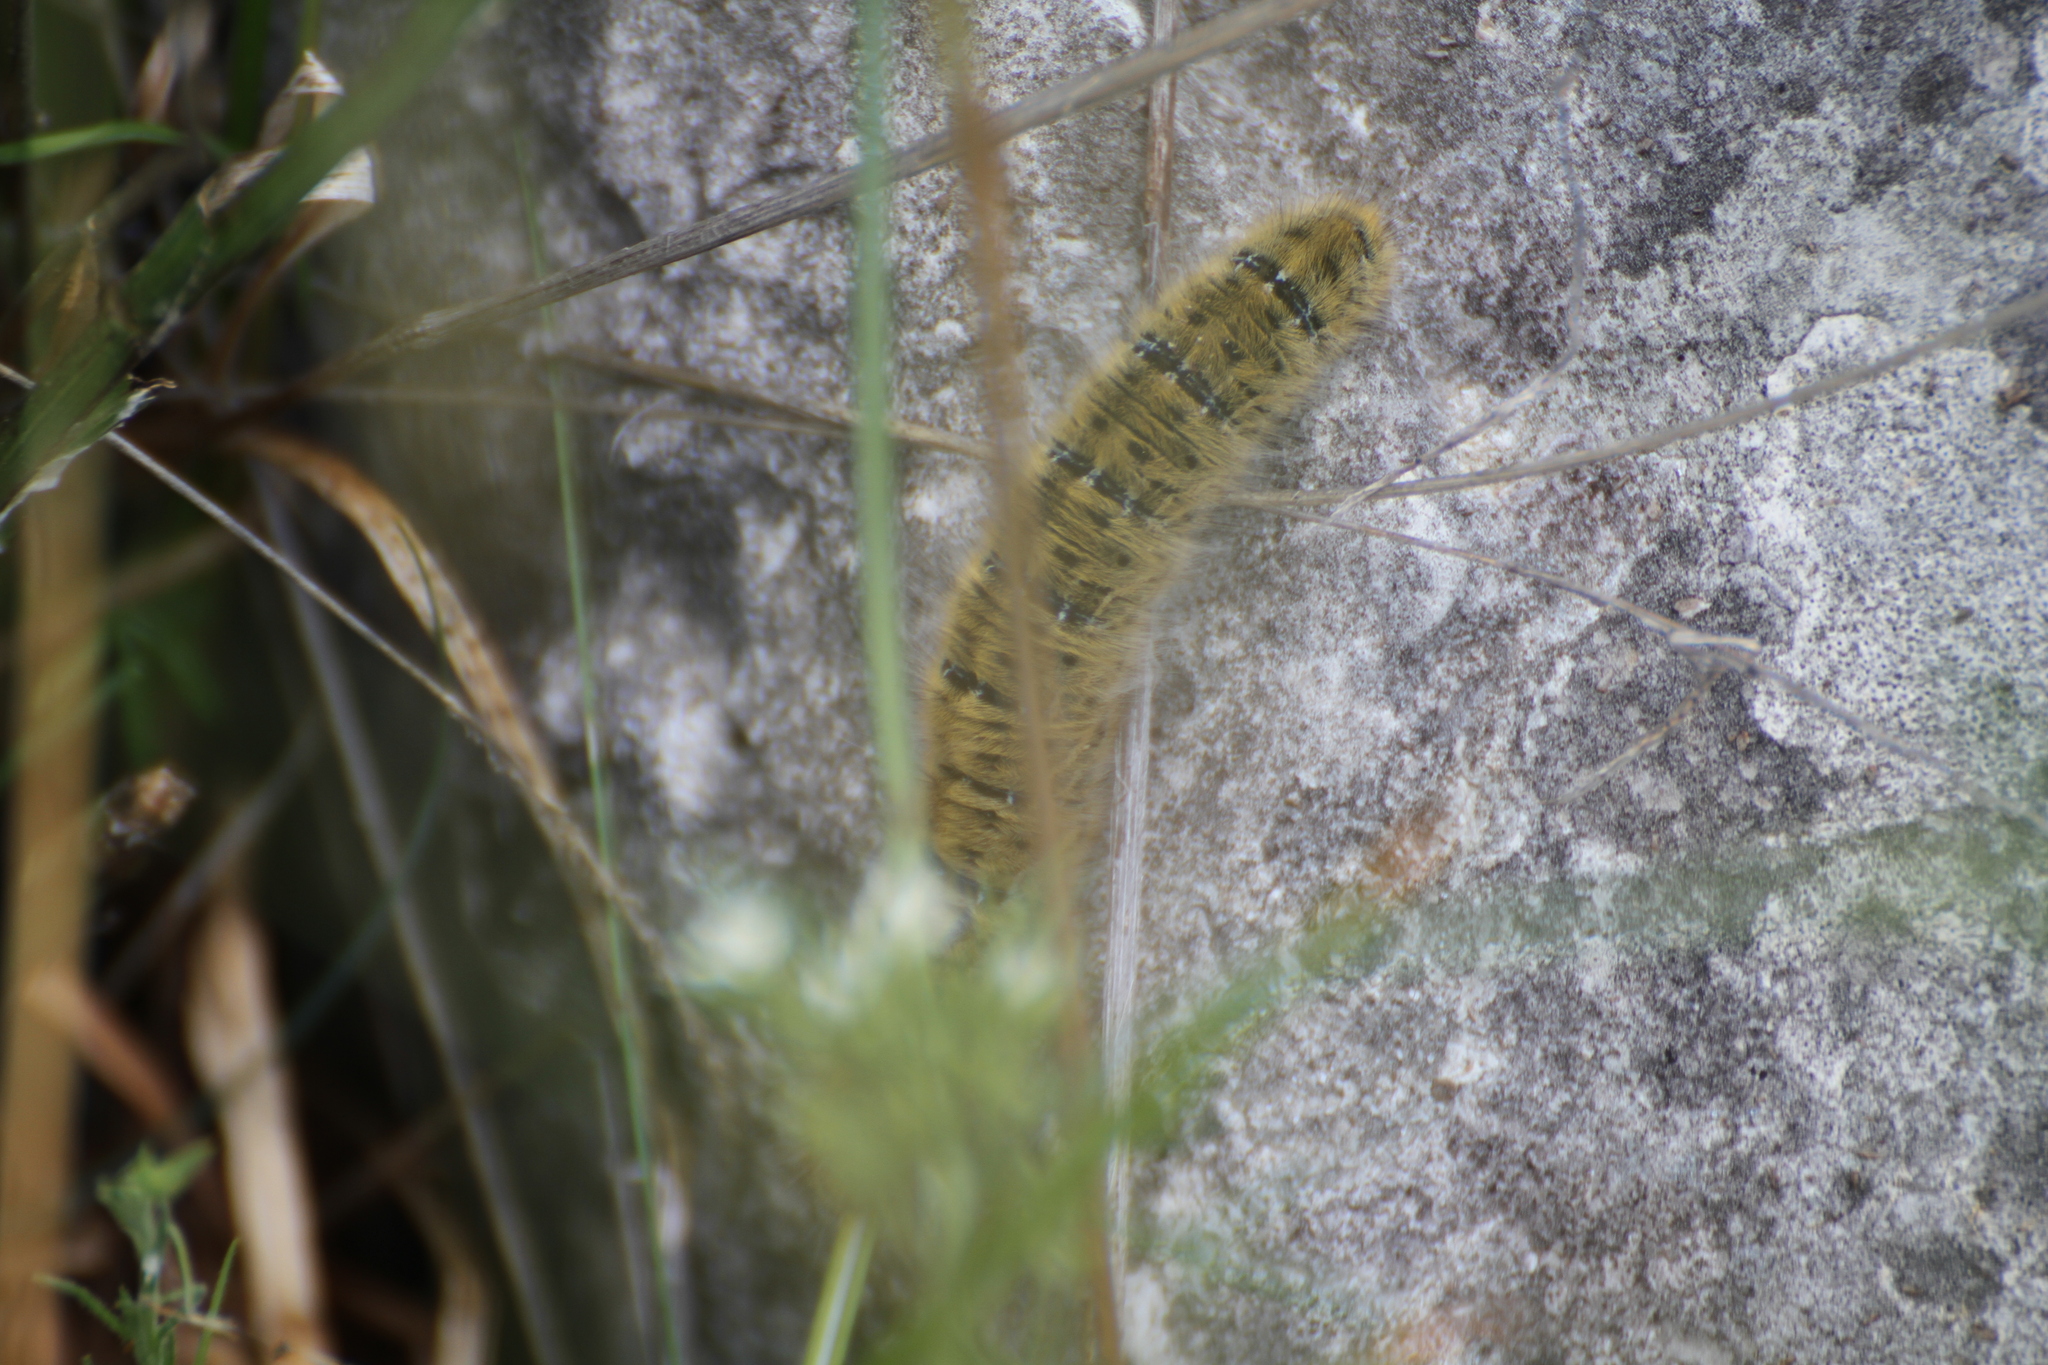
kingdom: Animalia
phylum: Arthropoda
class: Insecta
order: Lepidoptera
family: Lasiocampidae
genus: Lasiocampa
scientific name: Lasiocampa trifolii
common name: Grass eggar
